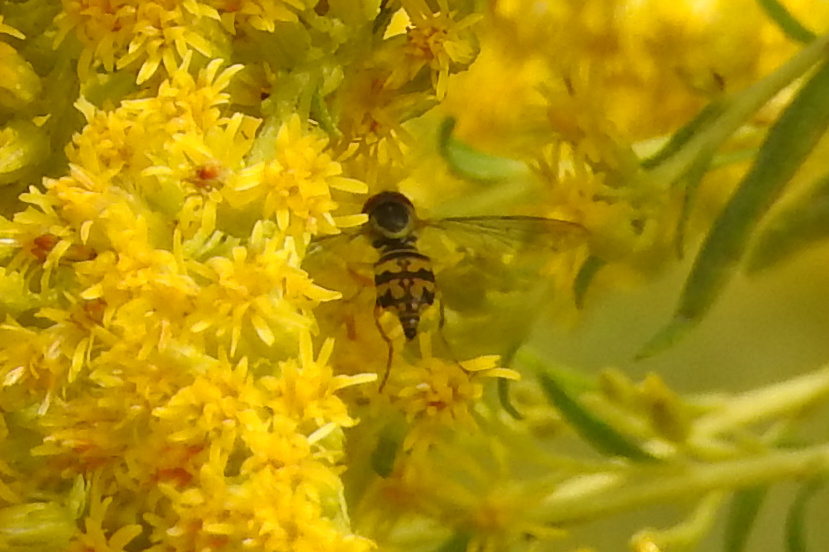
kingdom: Animalia
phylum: Arthropoda
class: Insecta
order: Diptera
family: Syrphidae
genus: Toxomerus
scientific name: Toxomerus geminatus
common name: Eastern calligrapher
